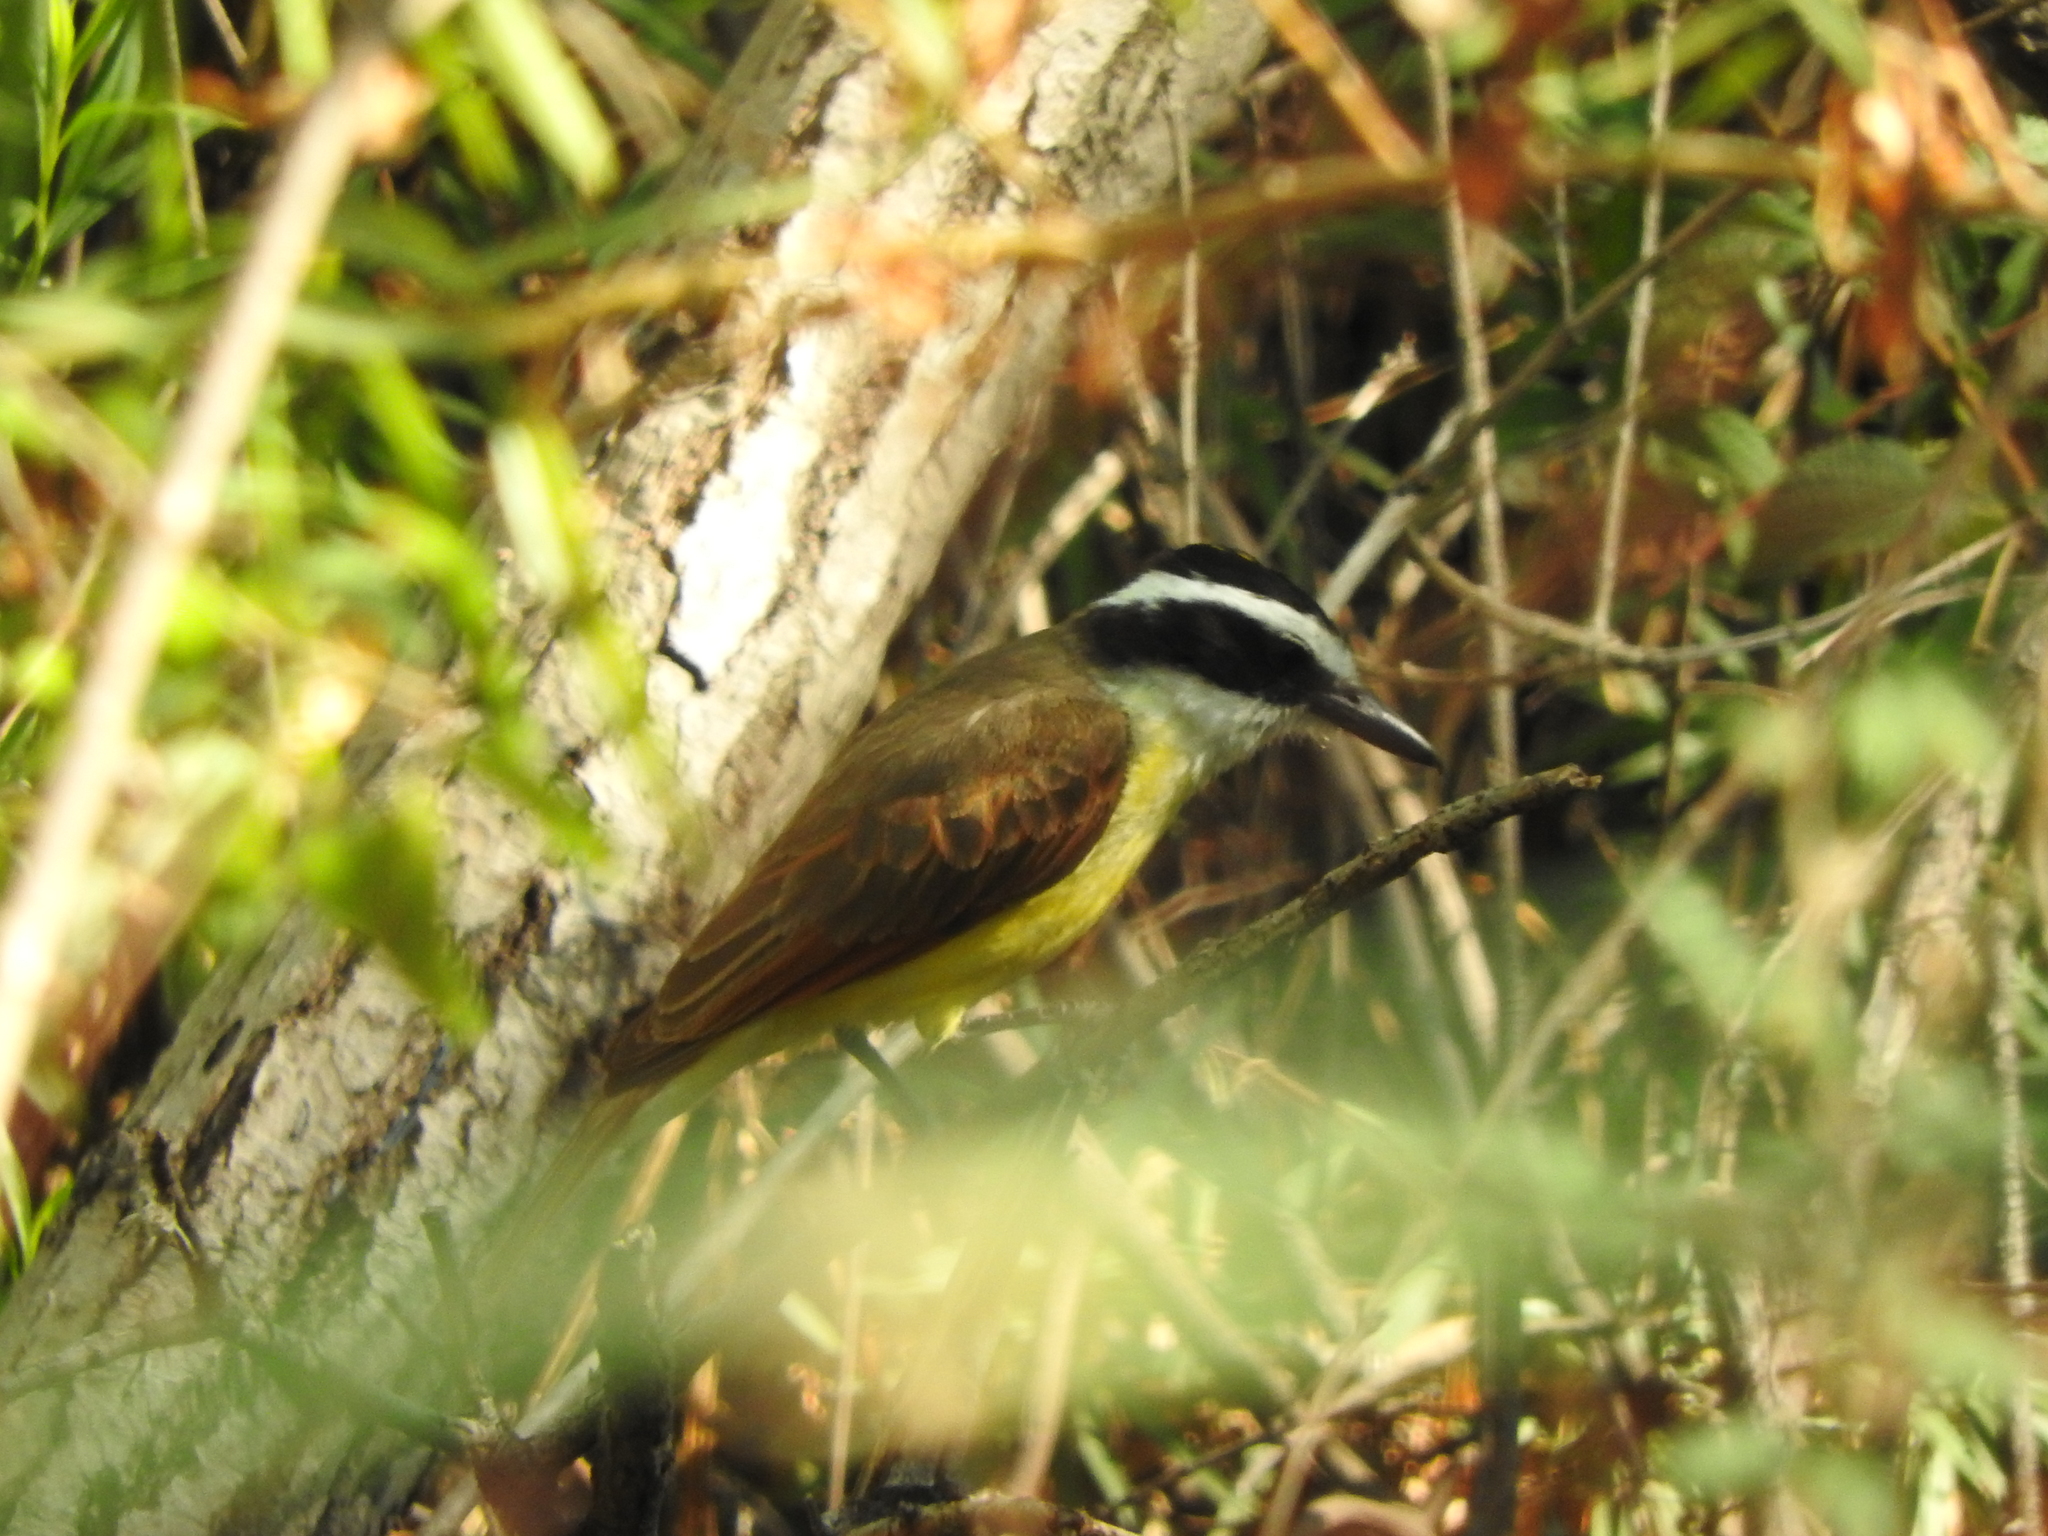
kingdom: Animalia
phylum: Chordata
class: Aves
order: Passeriformes
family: Tyrannidae
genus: Pitangus
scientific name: Pitangus sulphuratus
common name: Great kiskadee
